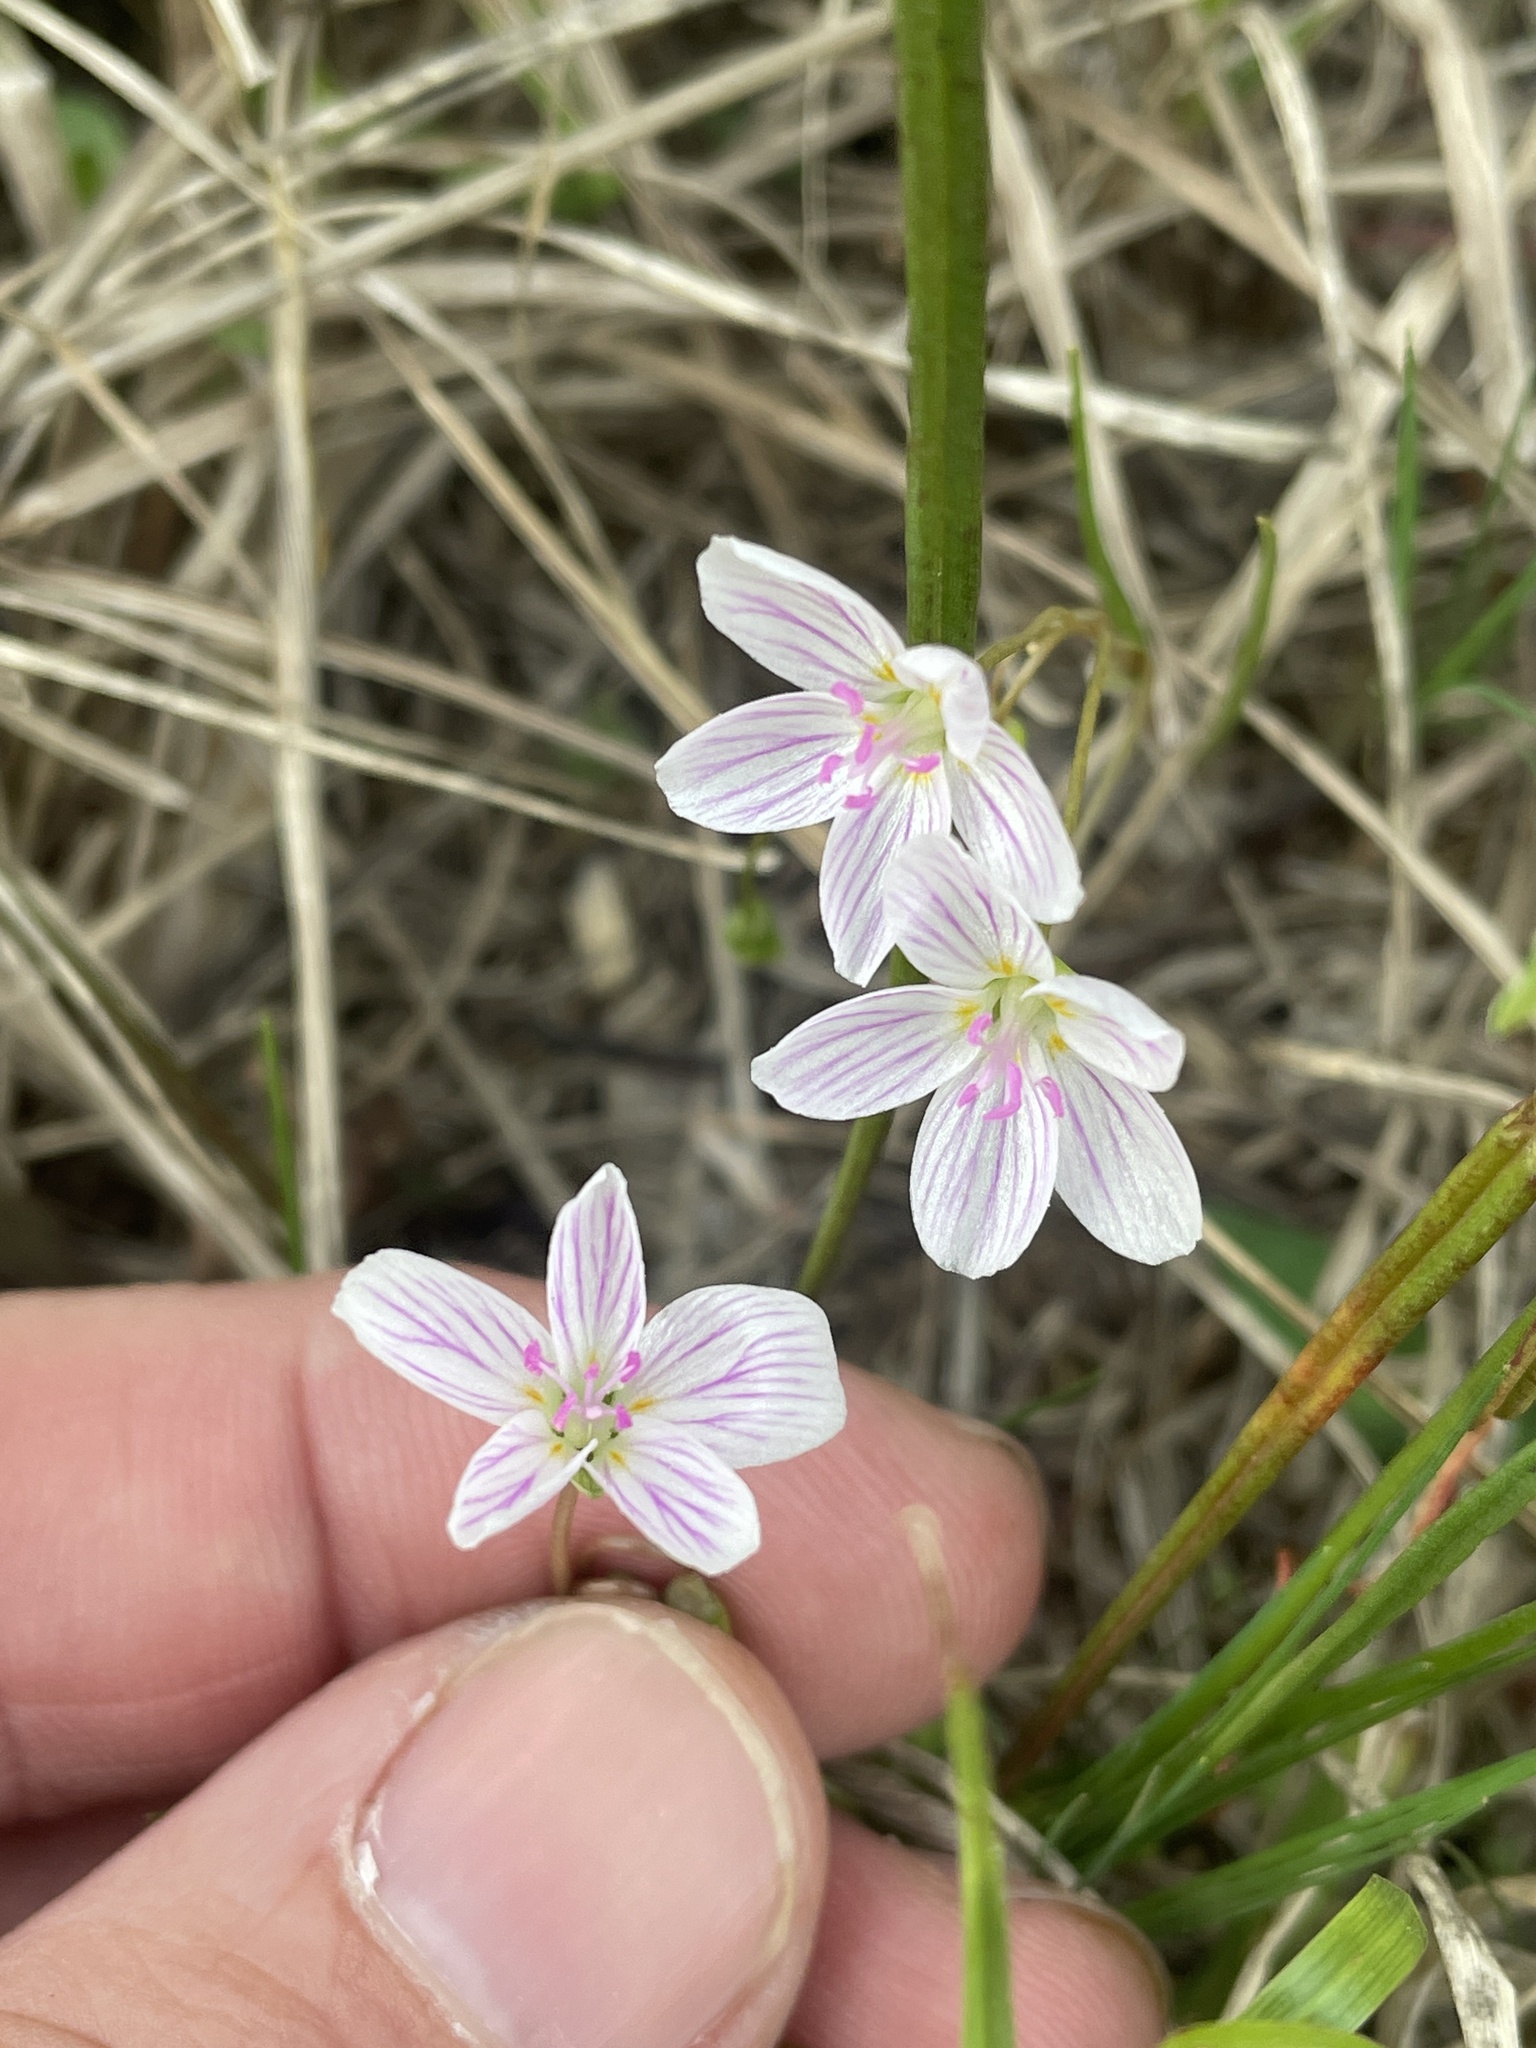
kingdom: Plantae
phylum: Tracheophyta
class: Magnoliopsida
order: Caryophyllales
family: Montiaceae
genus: Claytonia
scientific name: Claytonia virginica
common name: Virginia springbeauty
